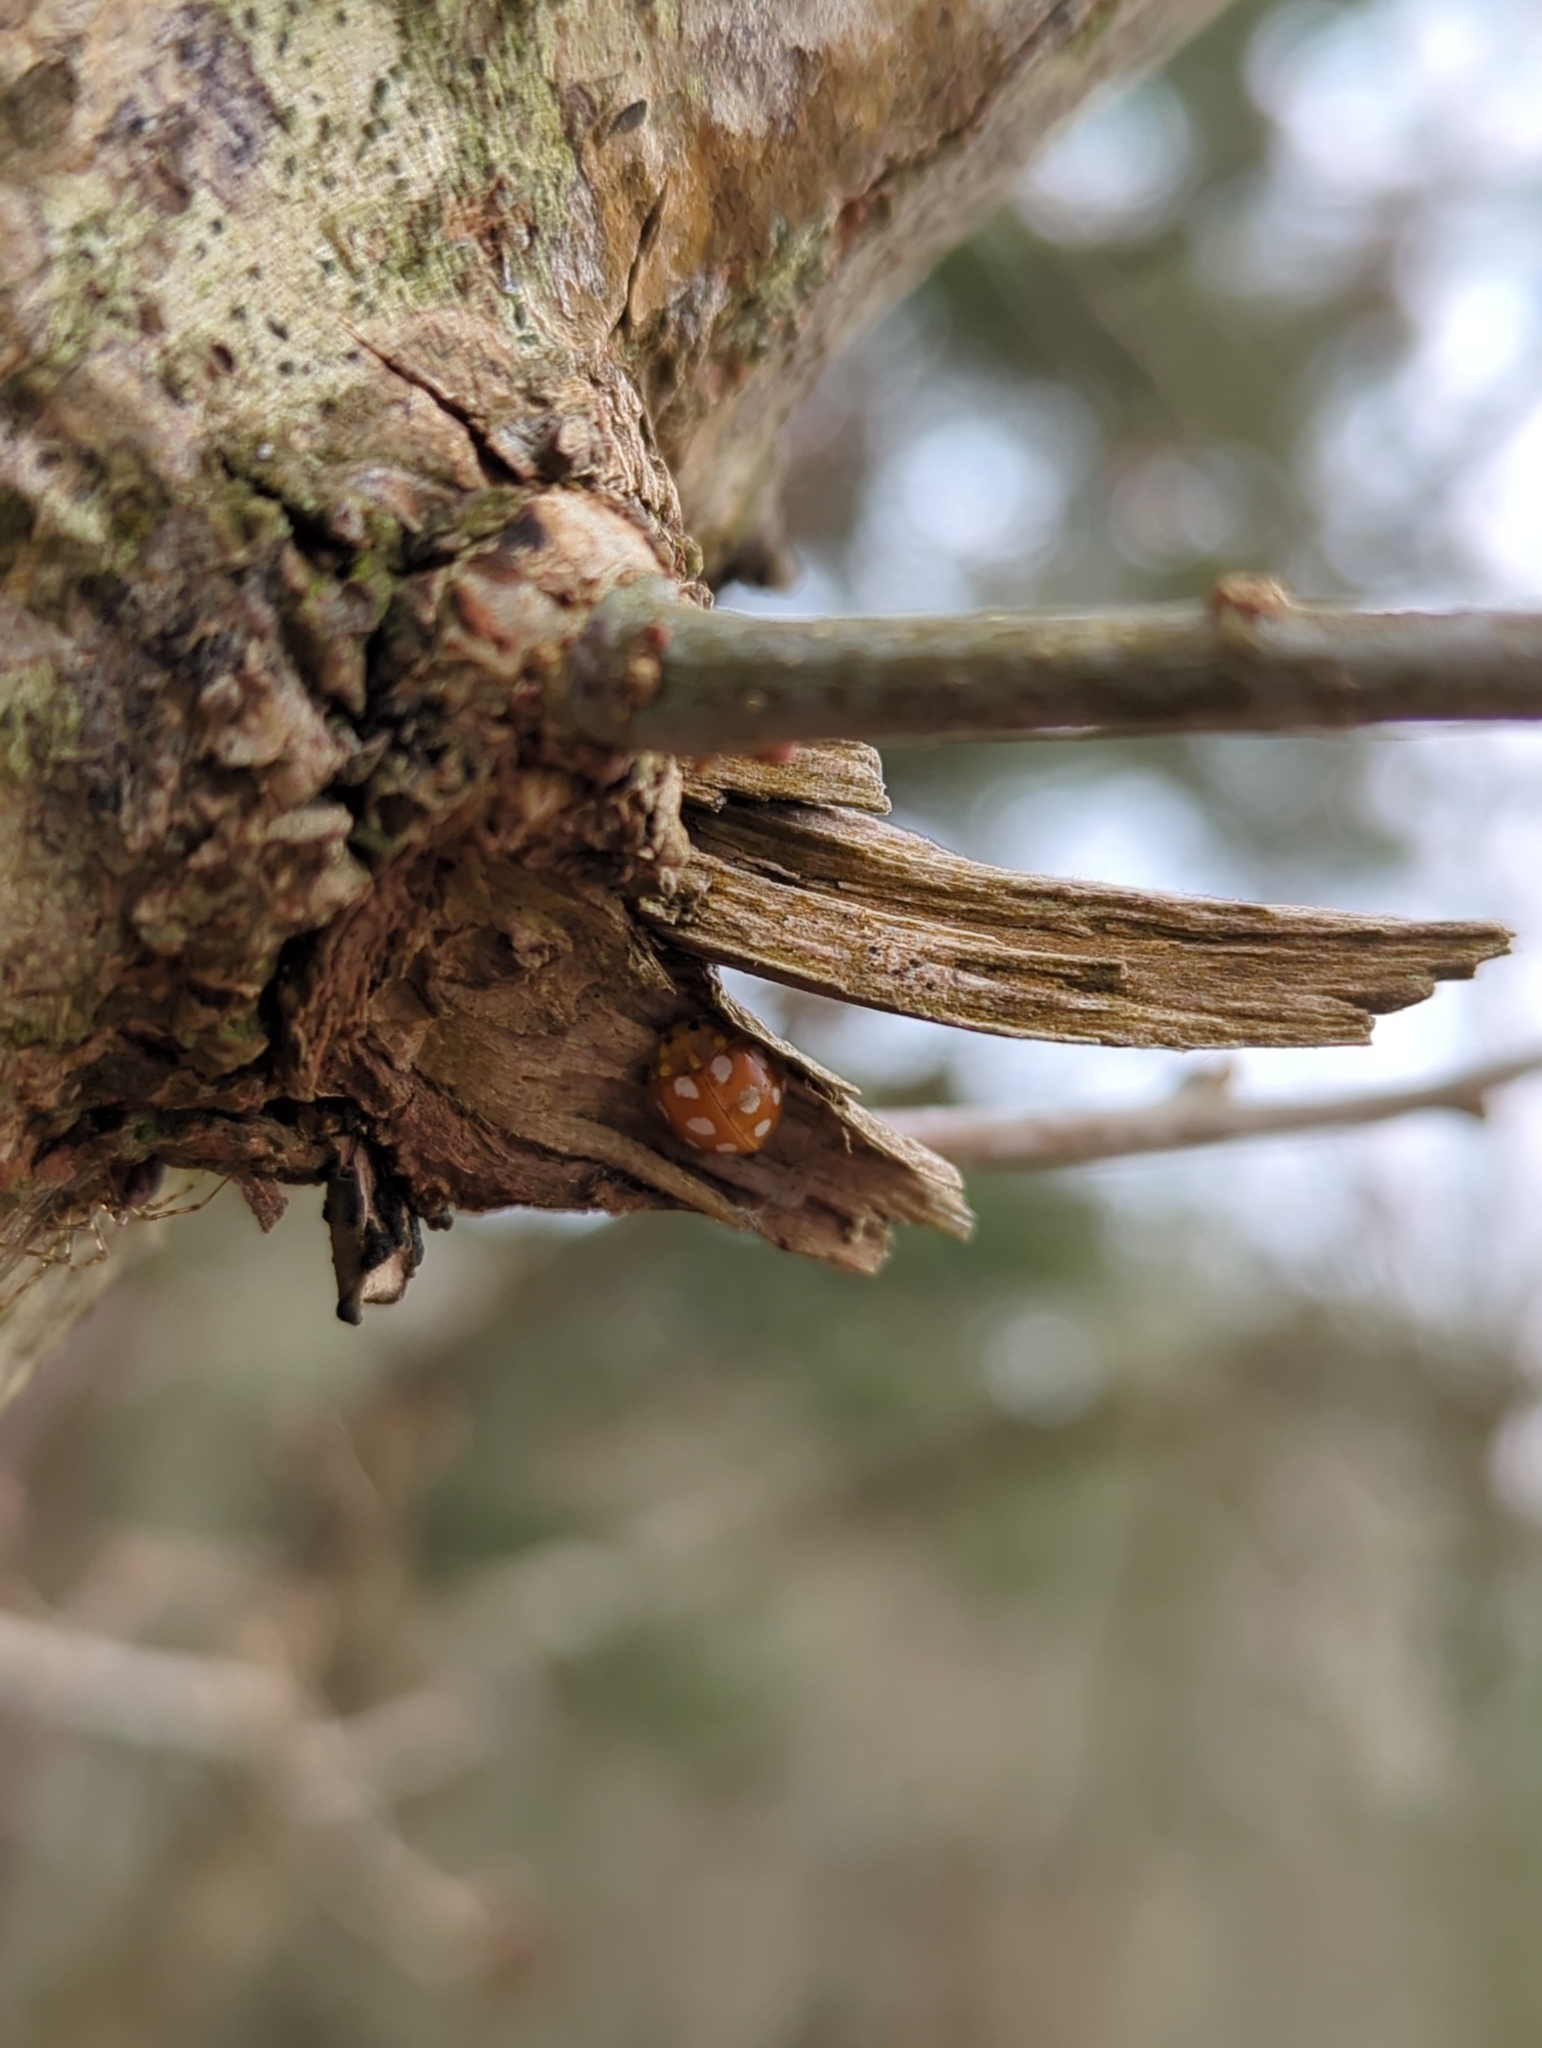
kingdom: Animalia
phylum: Arthropoda
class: Insecta
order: Coleoptera
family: Coccinellidae
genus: Halyzia
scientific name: Halyzia sedecimguttata
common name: Orange ladybird
